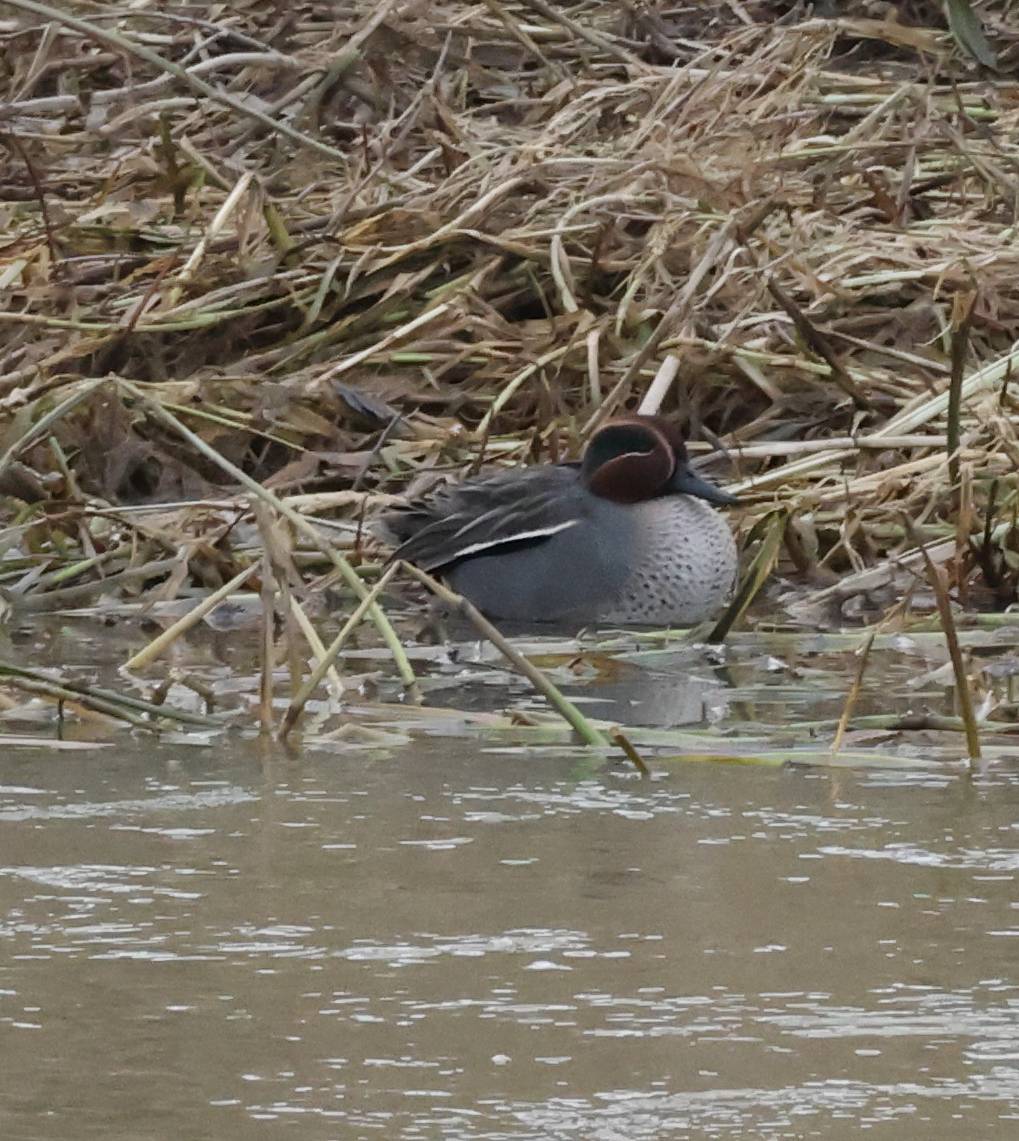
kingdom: Animalia
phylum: Chordata
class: Aves
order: Anseriformes
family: Anatidae
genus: Anas
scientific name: Anas crecca
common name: Eurasian teal
